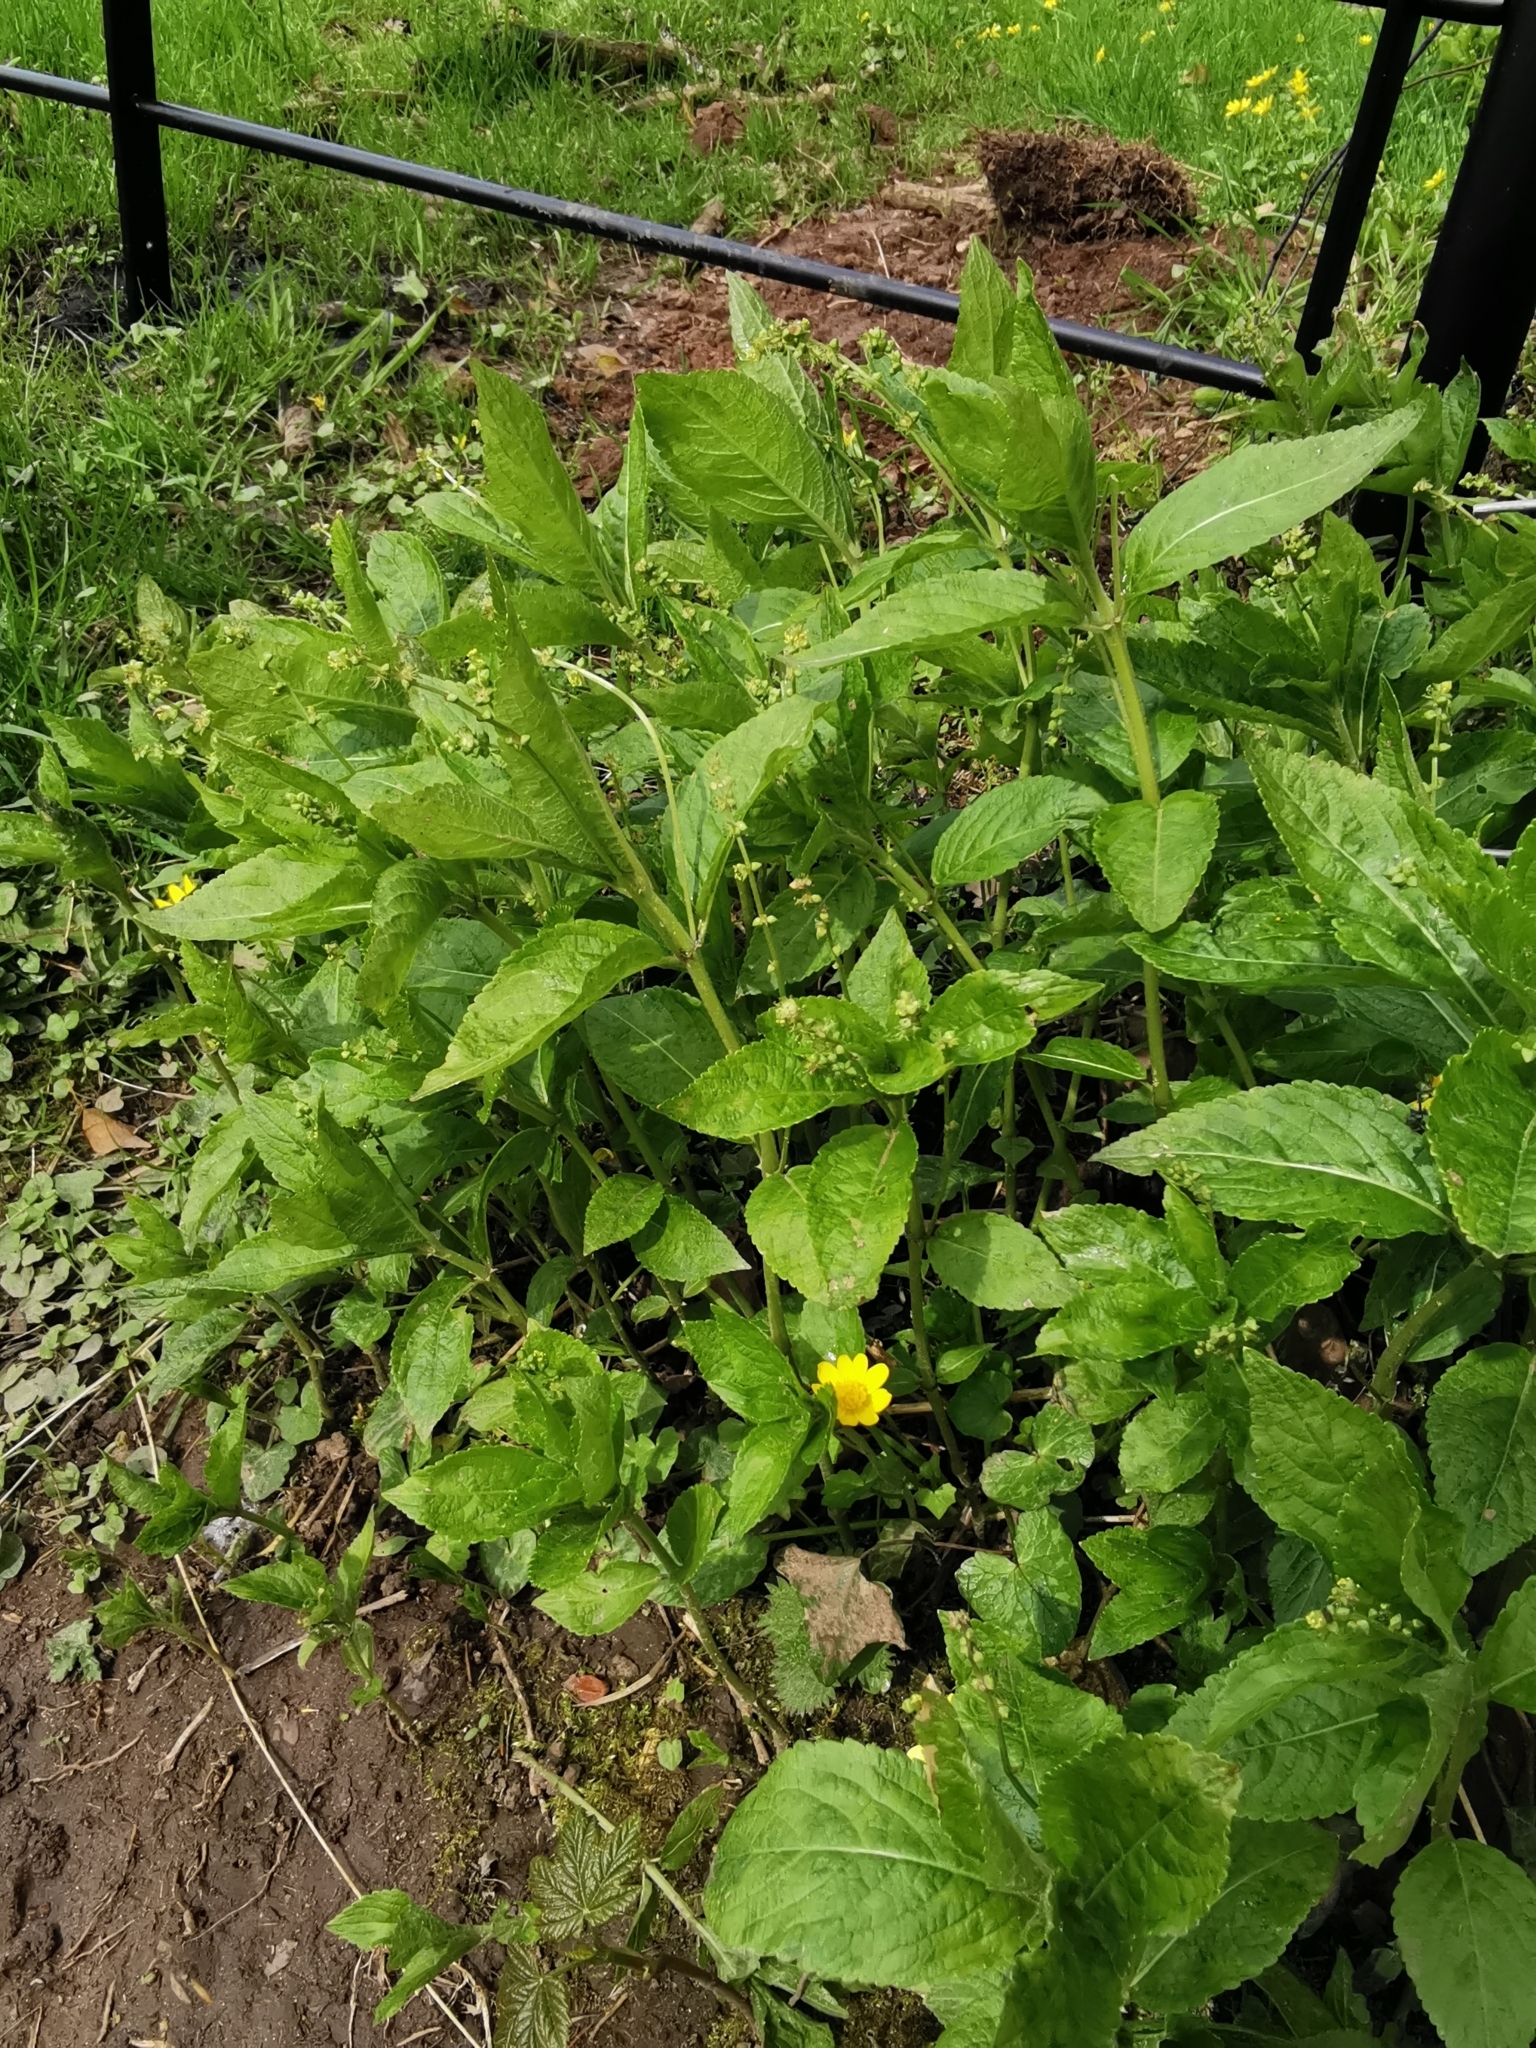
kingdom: Plantae
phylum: Tracheophyta
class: Magnoliopsida
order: Malpighiales
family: Euphorbiaceae
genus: Mercurialis
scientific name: Mercurialis perennis
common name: Dog mercury
